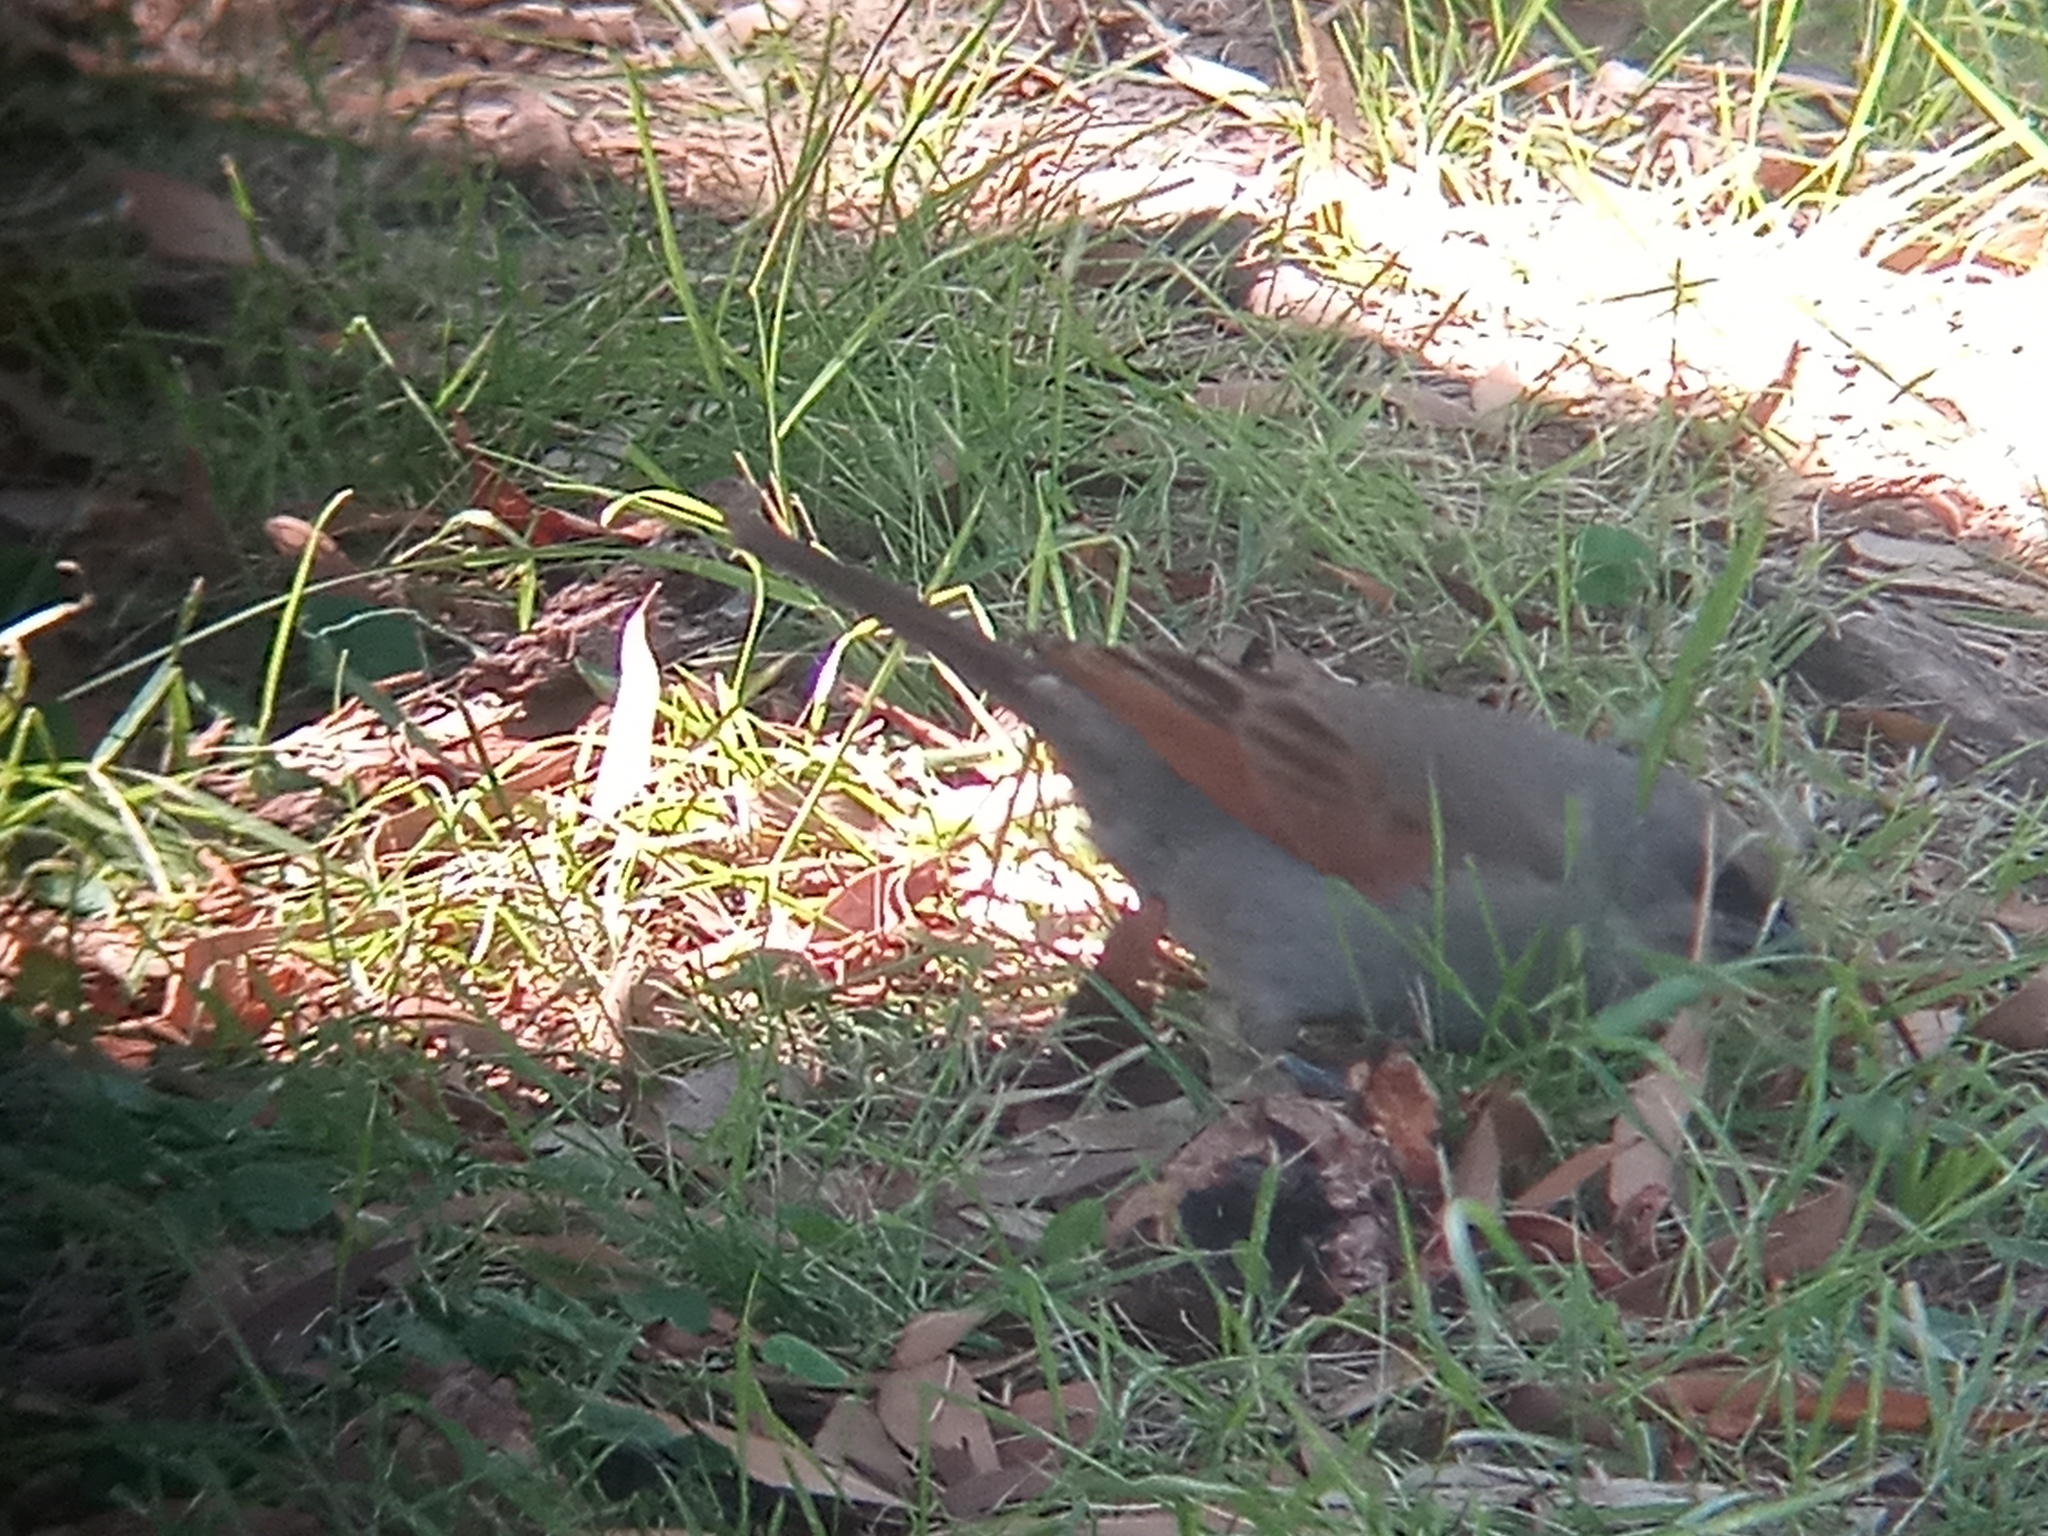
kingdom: Animalia
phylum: Chordata
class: Aves
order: Passeriformes
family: Icteridae
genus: Agelaioides
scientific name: Agelaioides badius
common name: Baywing
